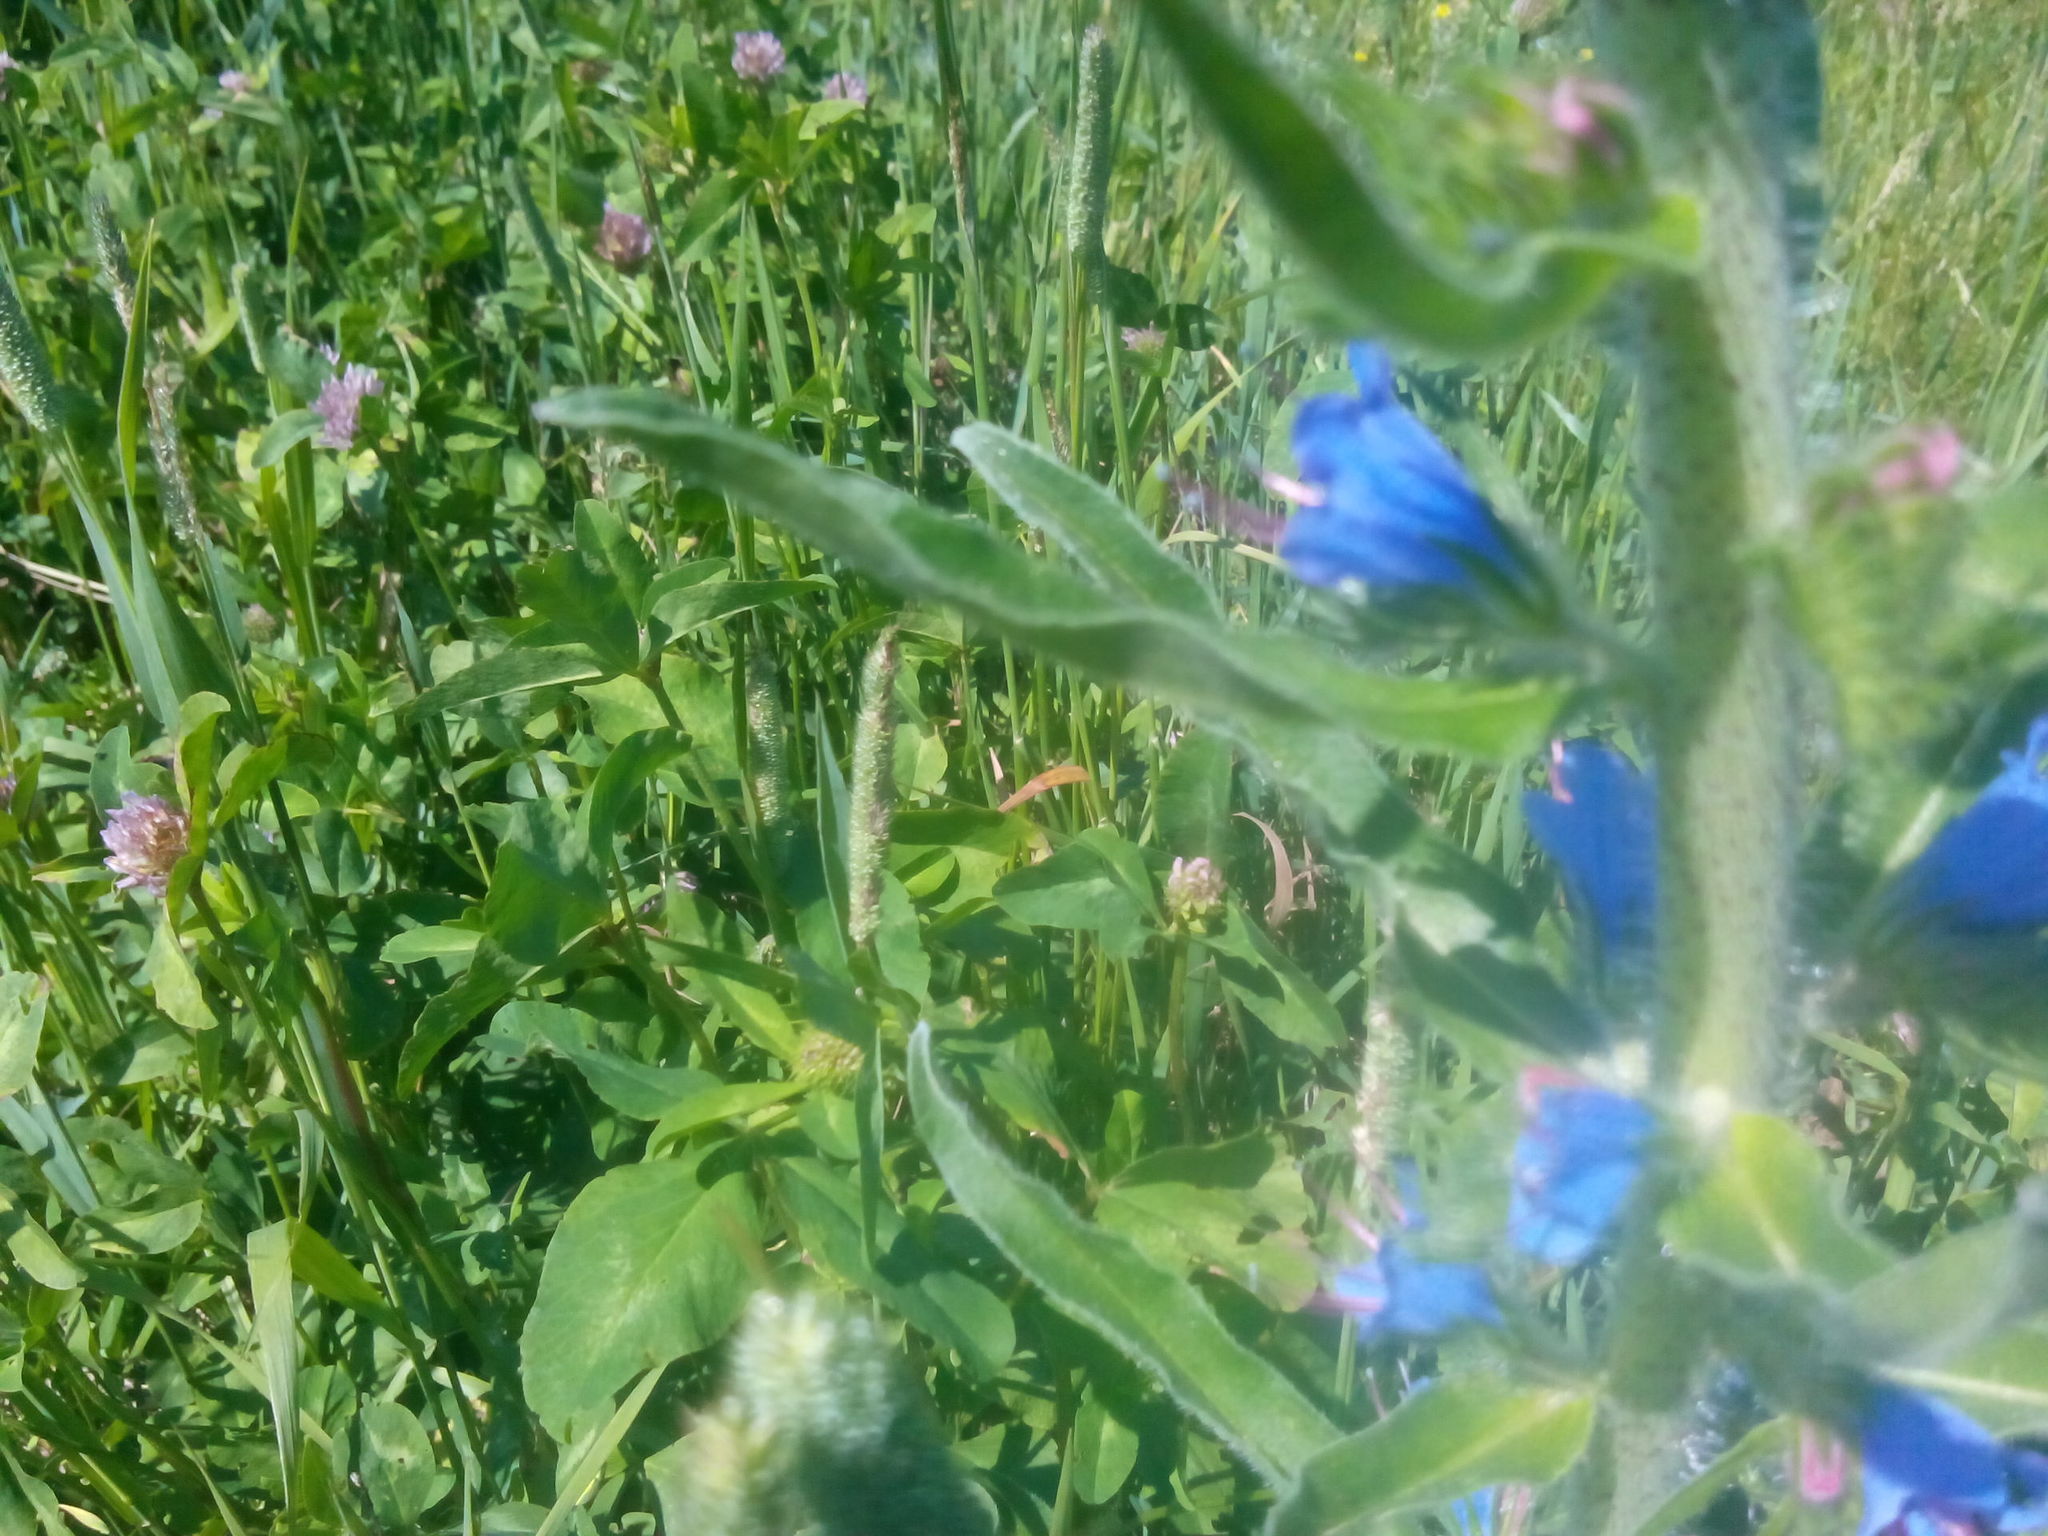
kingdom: Plantae
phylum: Tracheophyta
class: Magnoliopsida
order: Boraginales
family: Boraginaceae
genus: Echium
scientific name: Echium vulgare
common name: Common viper's bugloss
